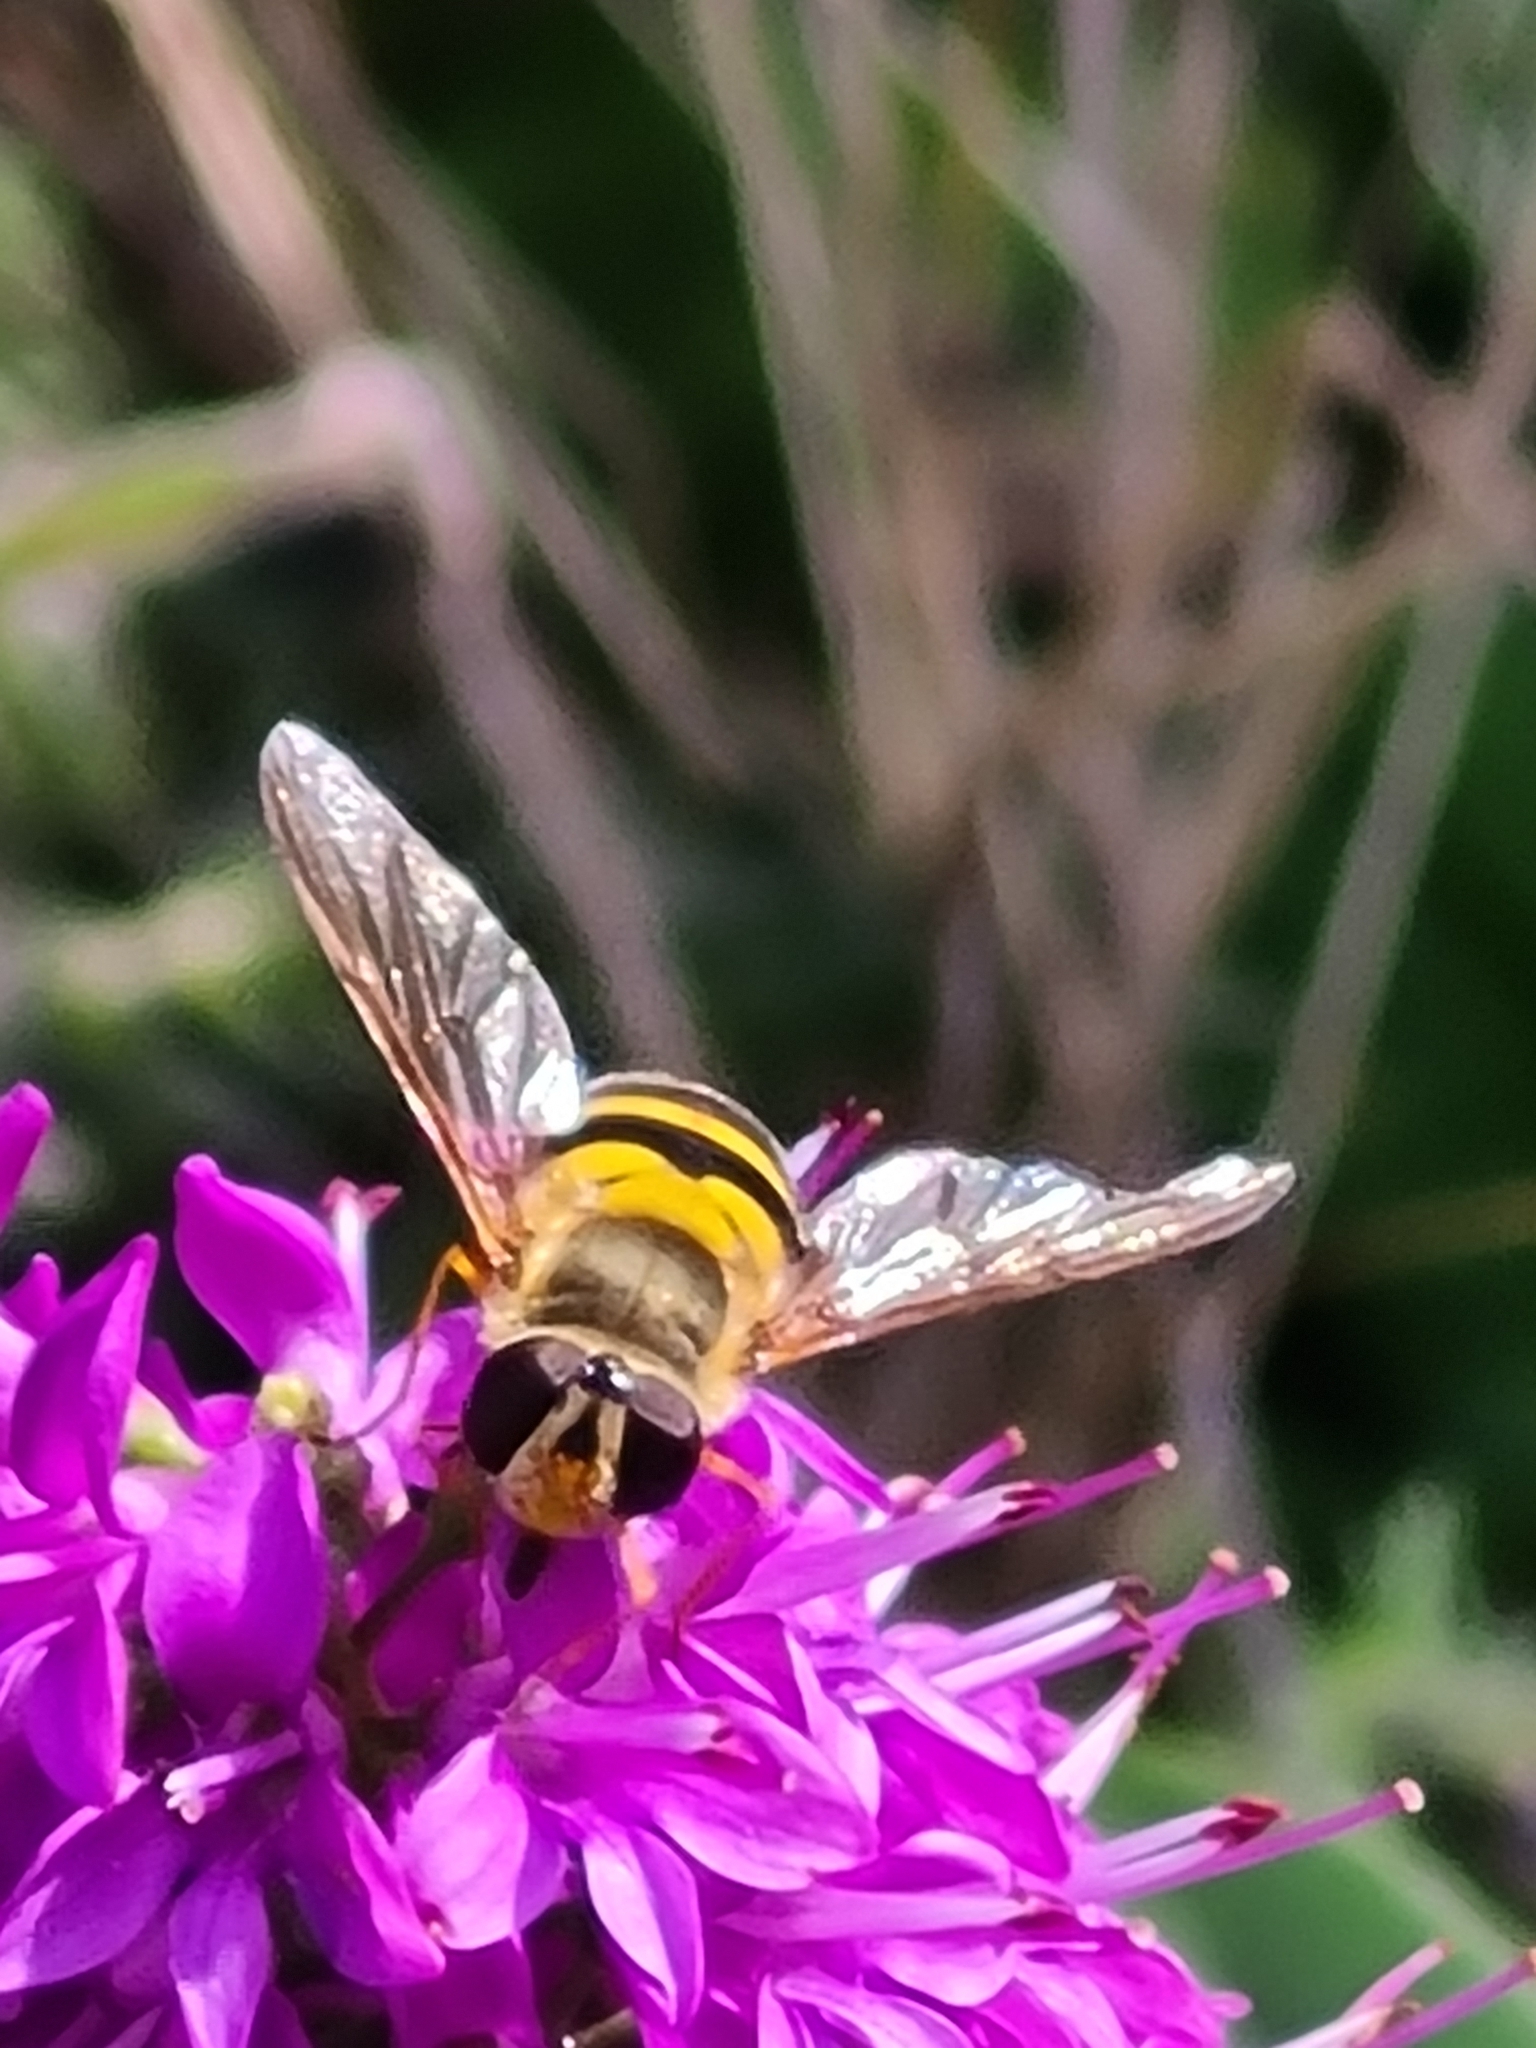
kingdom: Animalia
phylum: Arthropoda
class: Insecta
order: Diptera
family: Syrphidae
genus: Syrphus
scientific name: Syrphus
